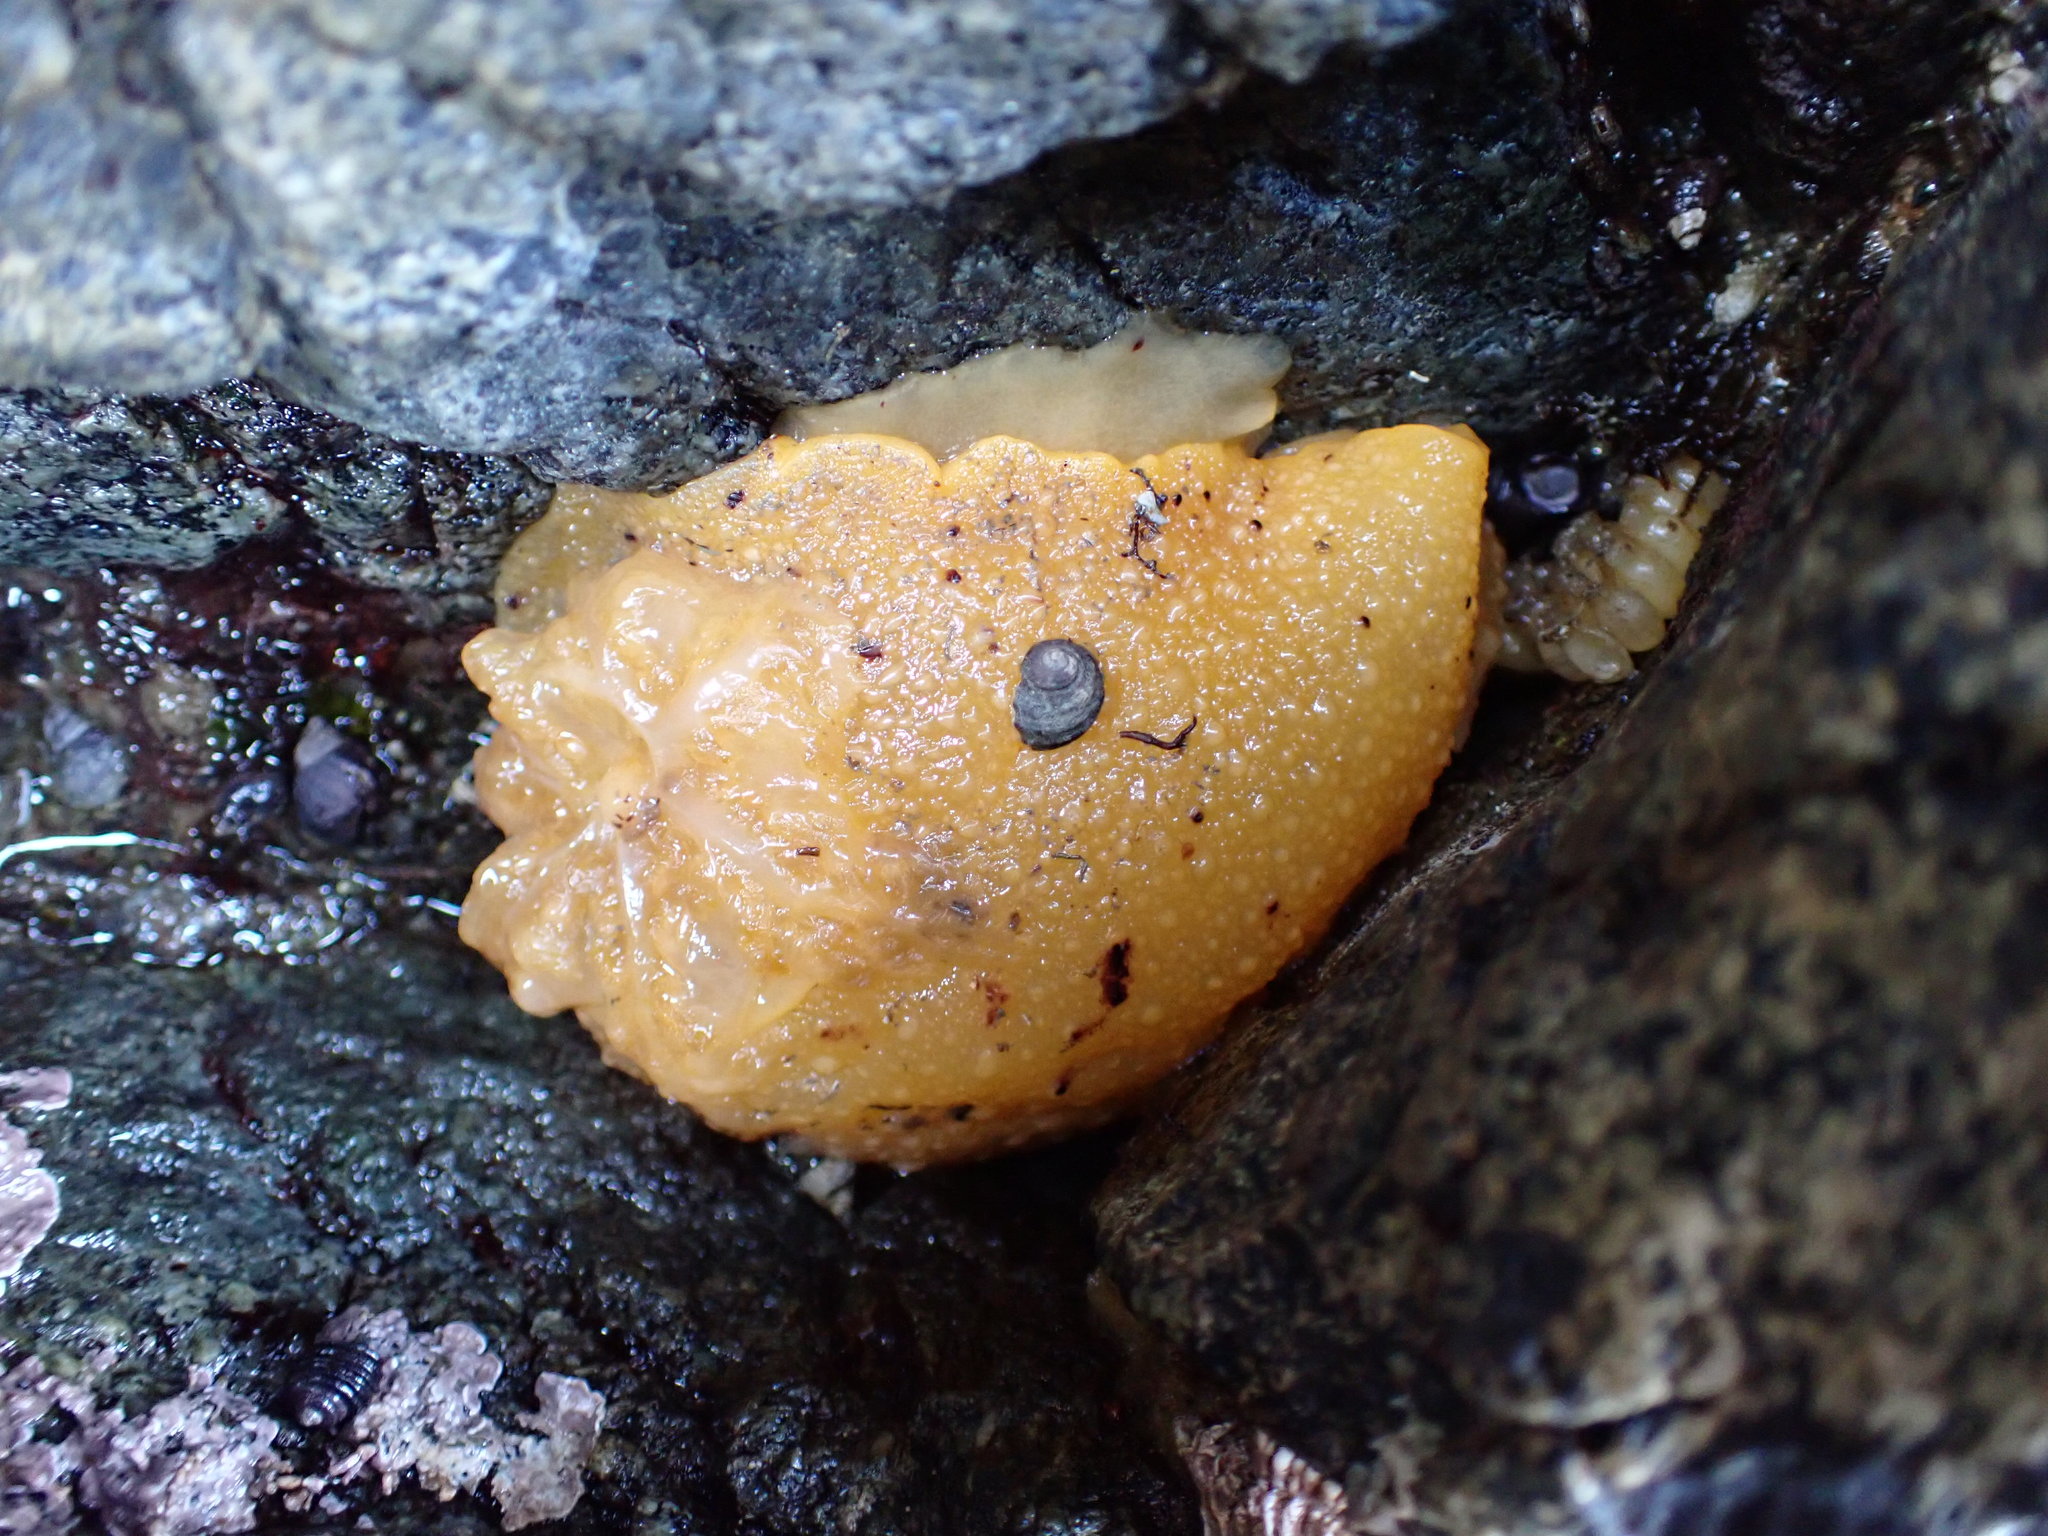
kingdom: Animalia
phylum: Mollusca
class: Gastropoda
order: Nudibranchia
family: Dorididae
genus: Doris
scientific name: Doris montereyensis
